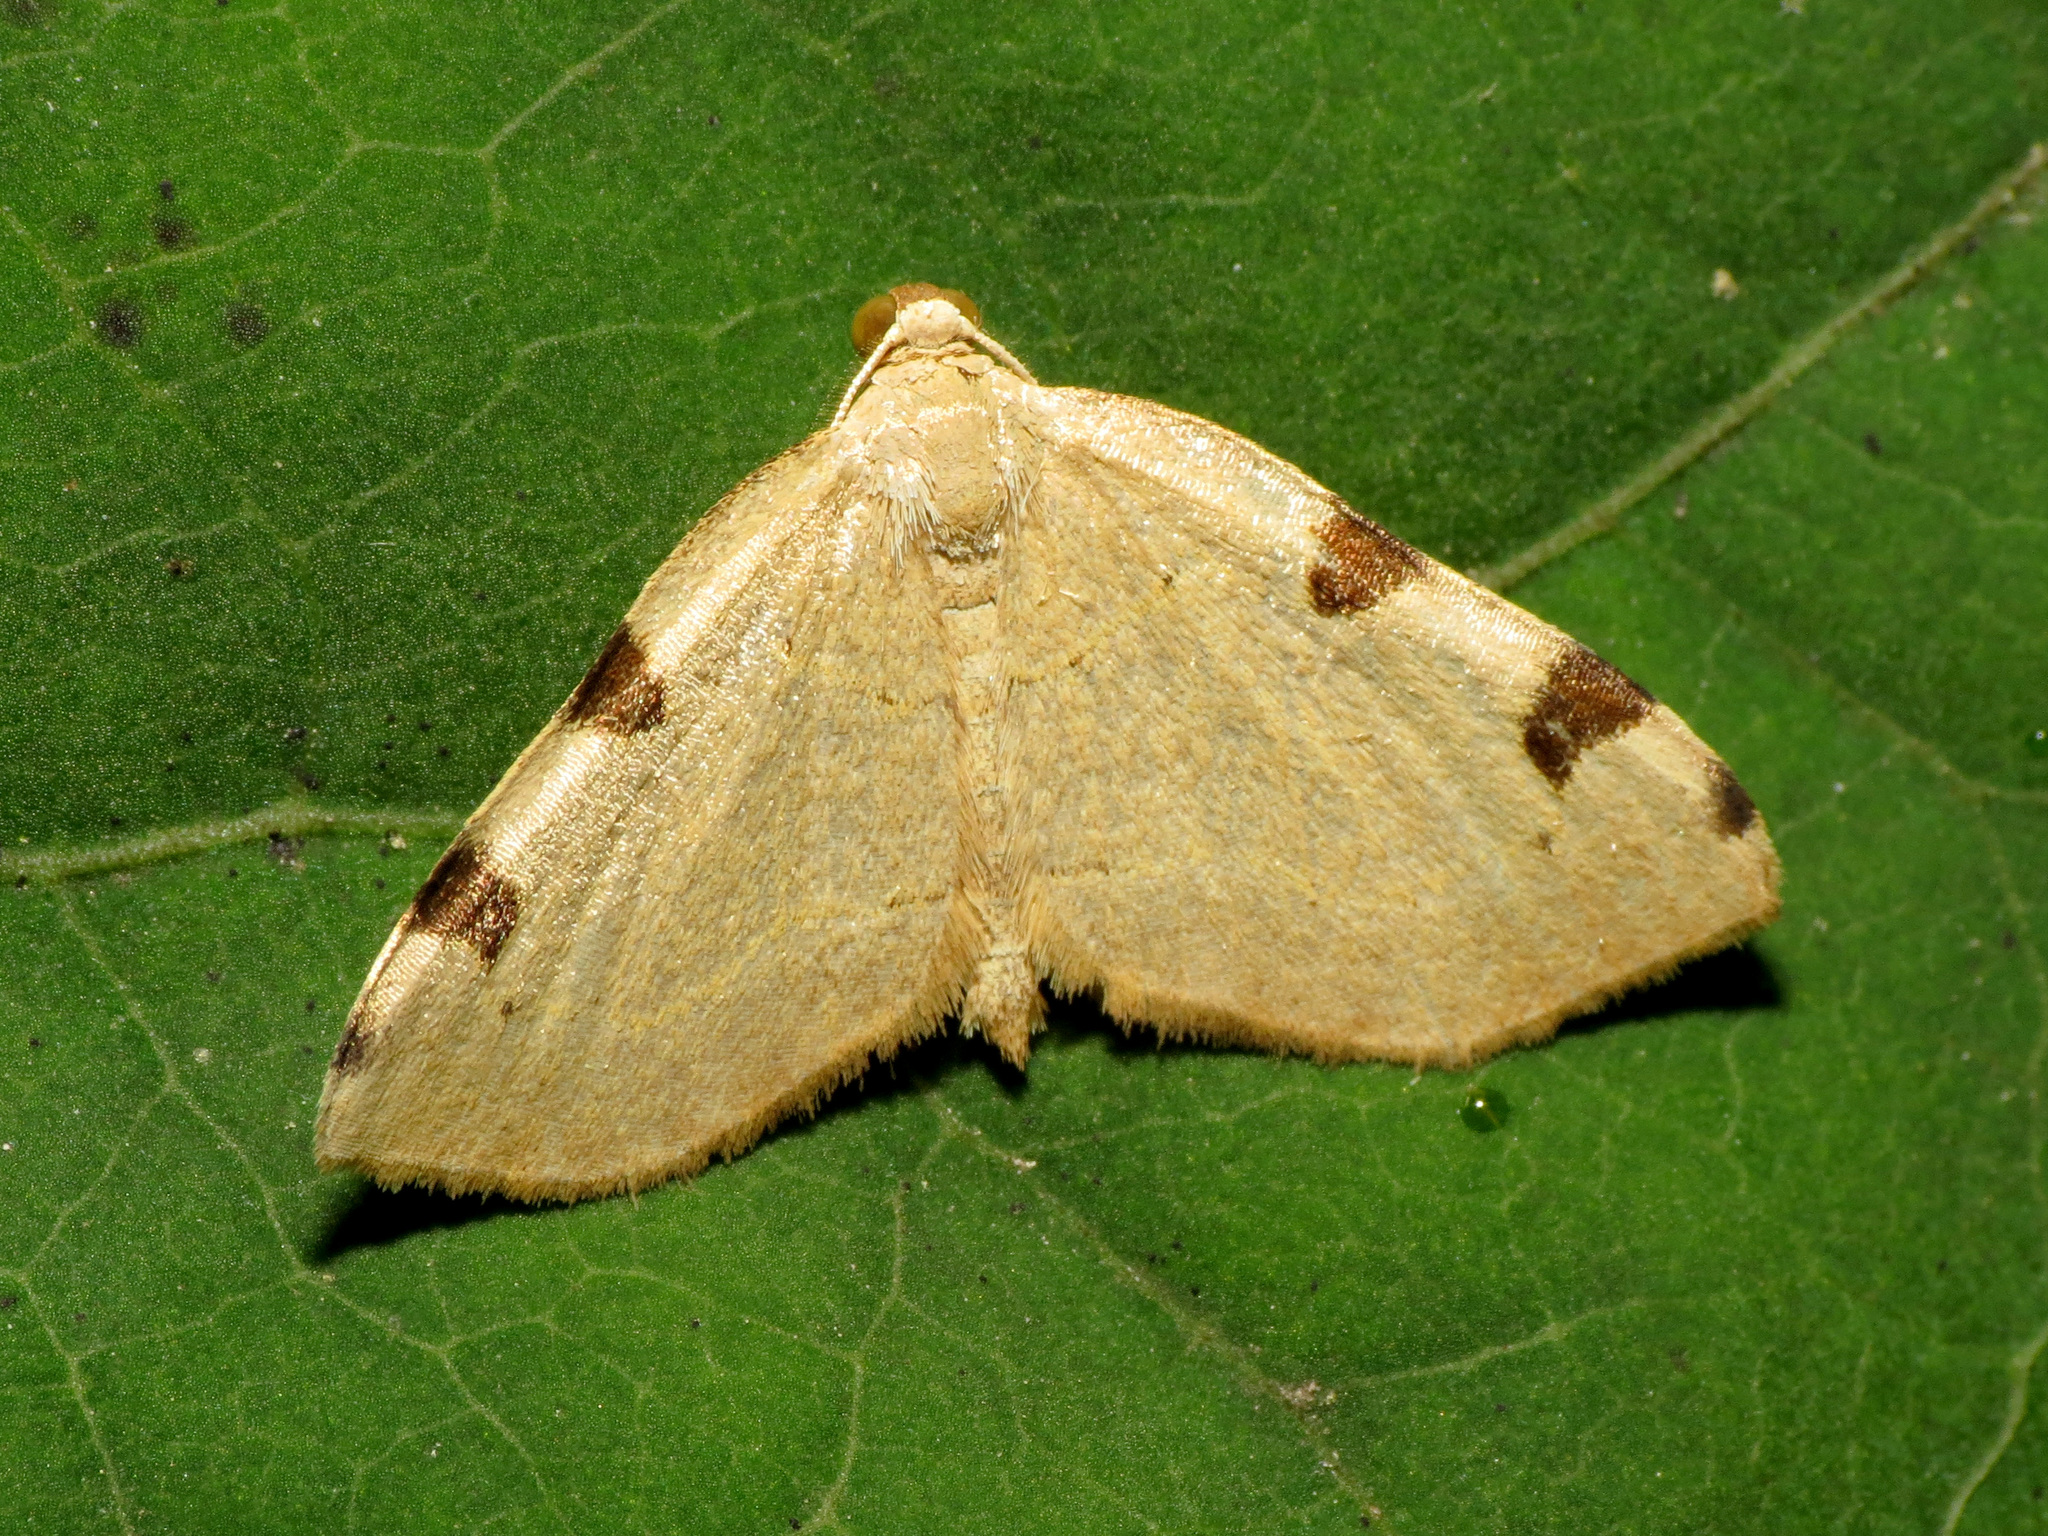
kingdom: Animalia
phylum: Arthropoda
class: Insecta
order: Lepidoptera
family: Geometridae
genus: Heterophleps
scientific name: Heterophleps triguttaria
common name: Three-spotted fillip
